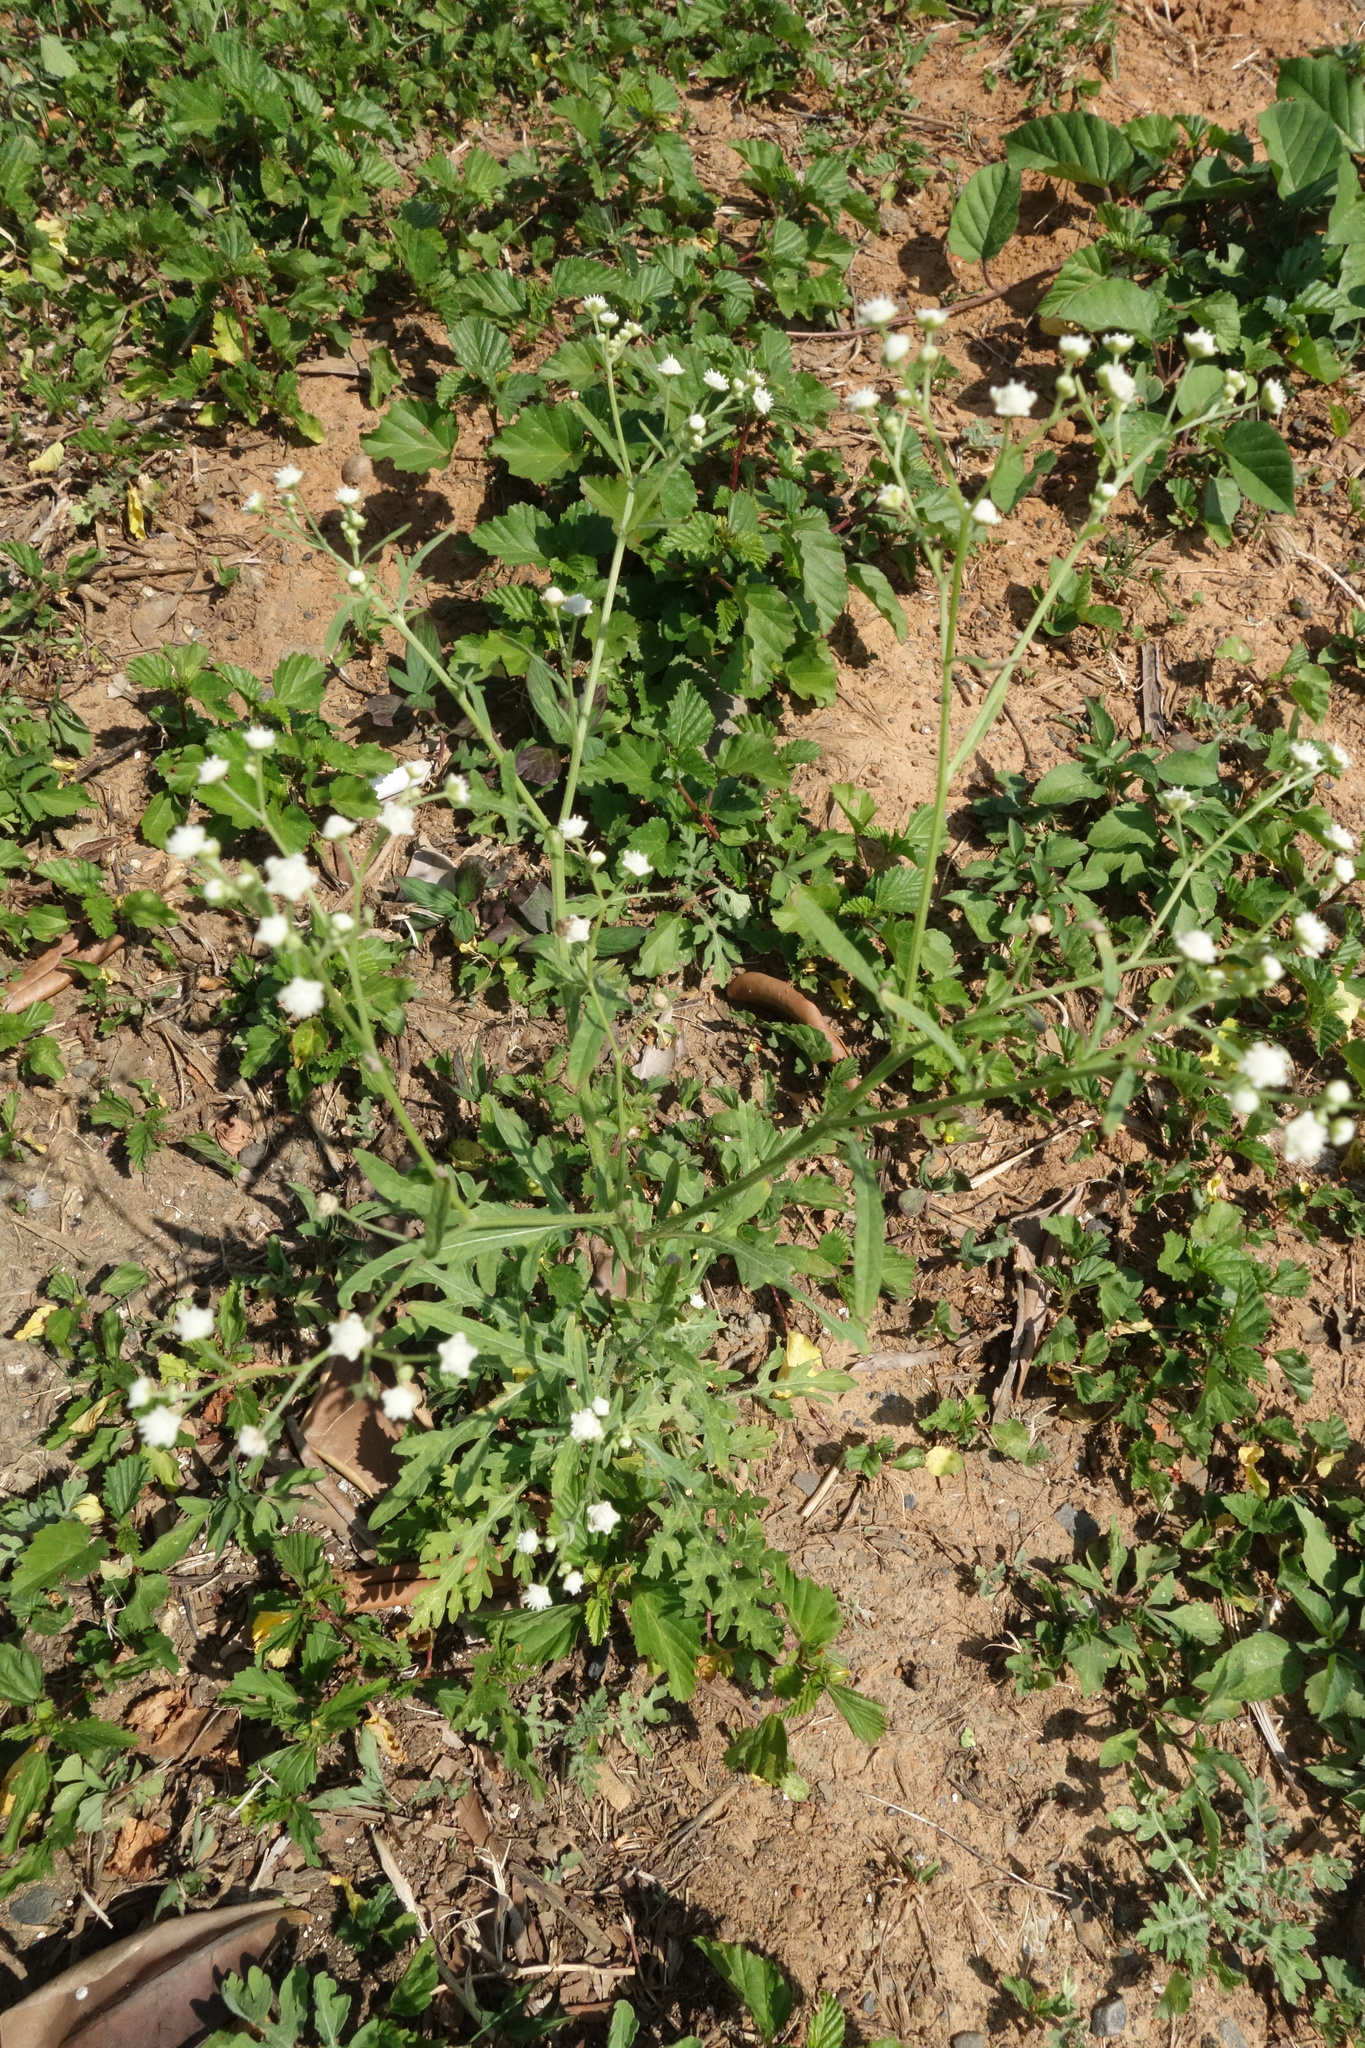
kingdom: Plantae
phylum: Tracheophyta
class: Magnoliopsida
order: Asterales
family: Asteraceae
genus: Parthenium
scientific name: Parthenium hysterophorus
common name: Santa maria feverfew
